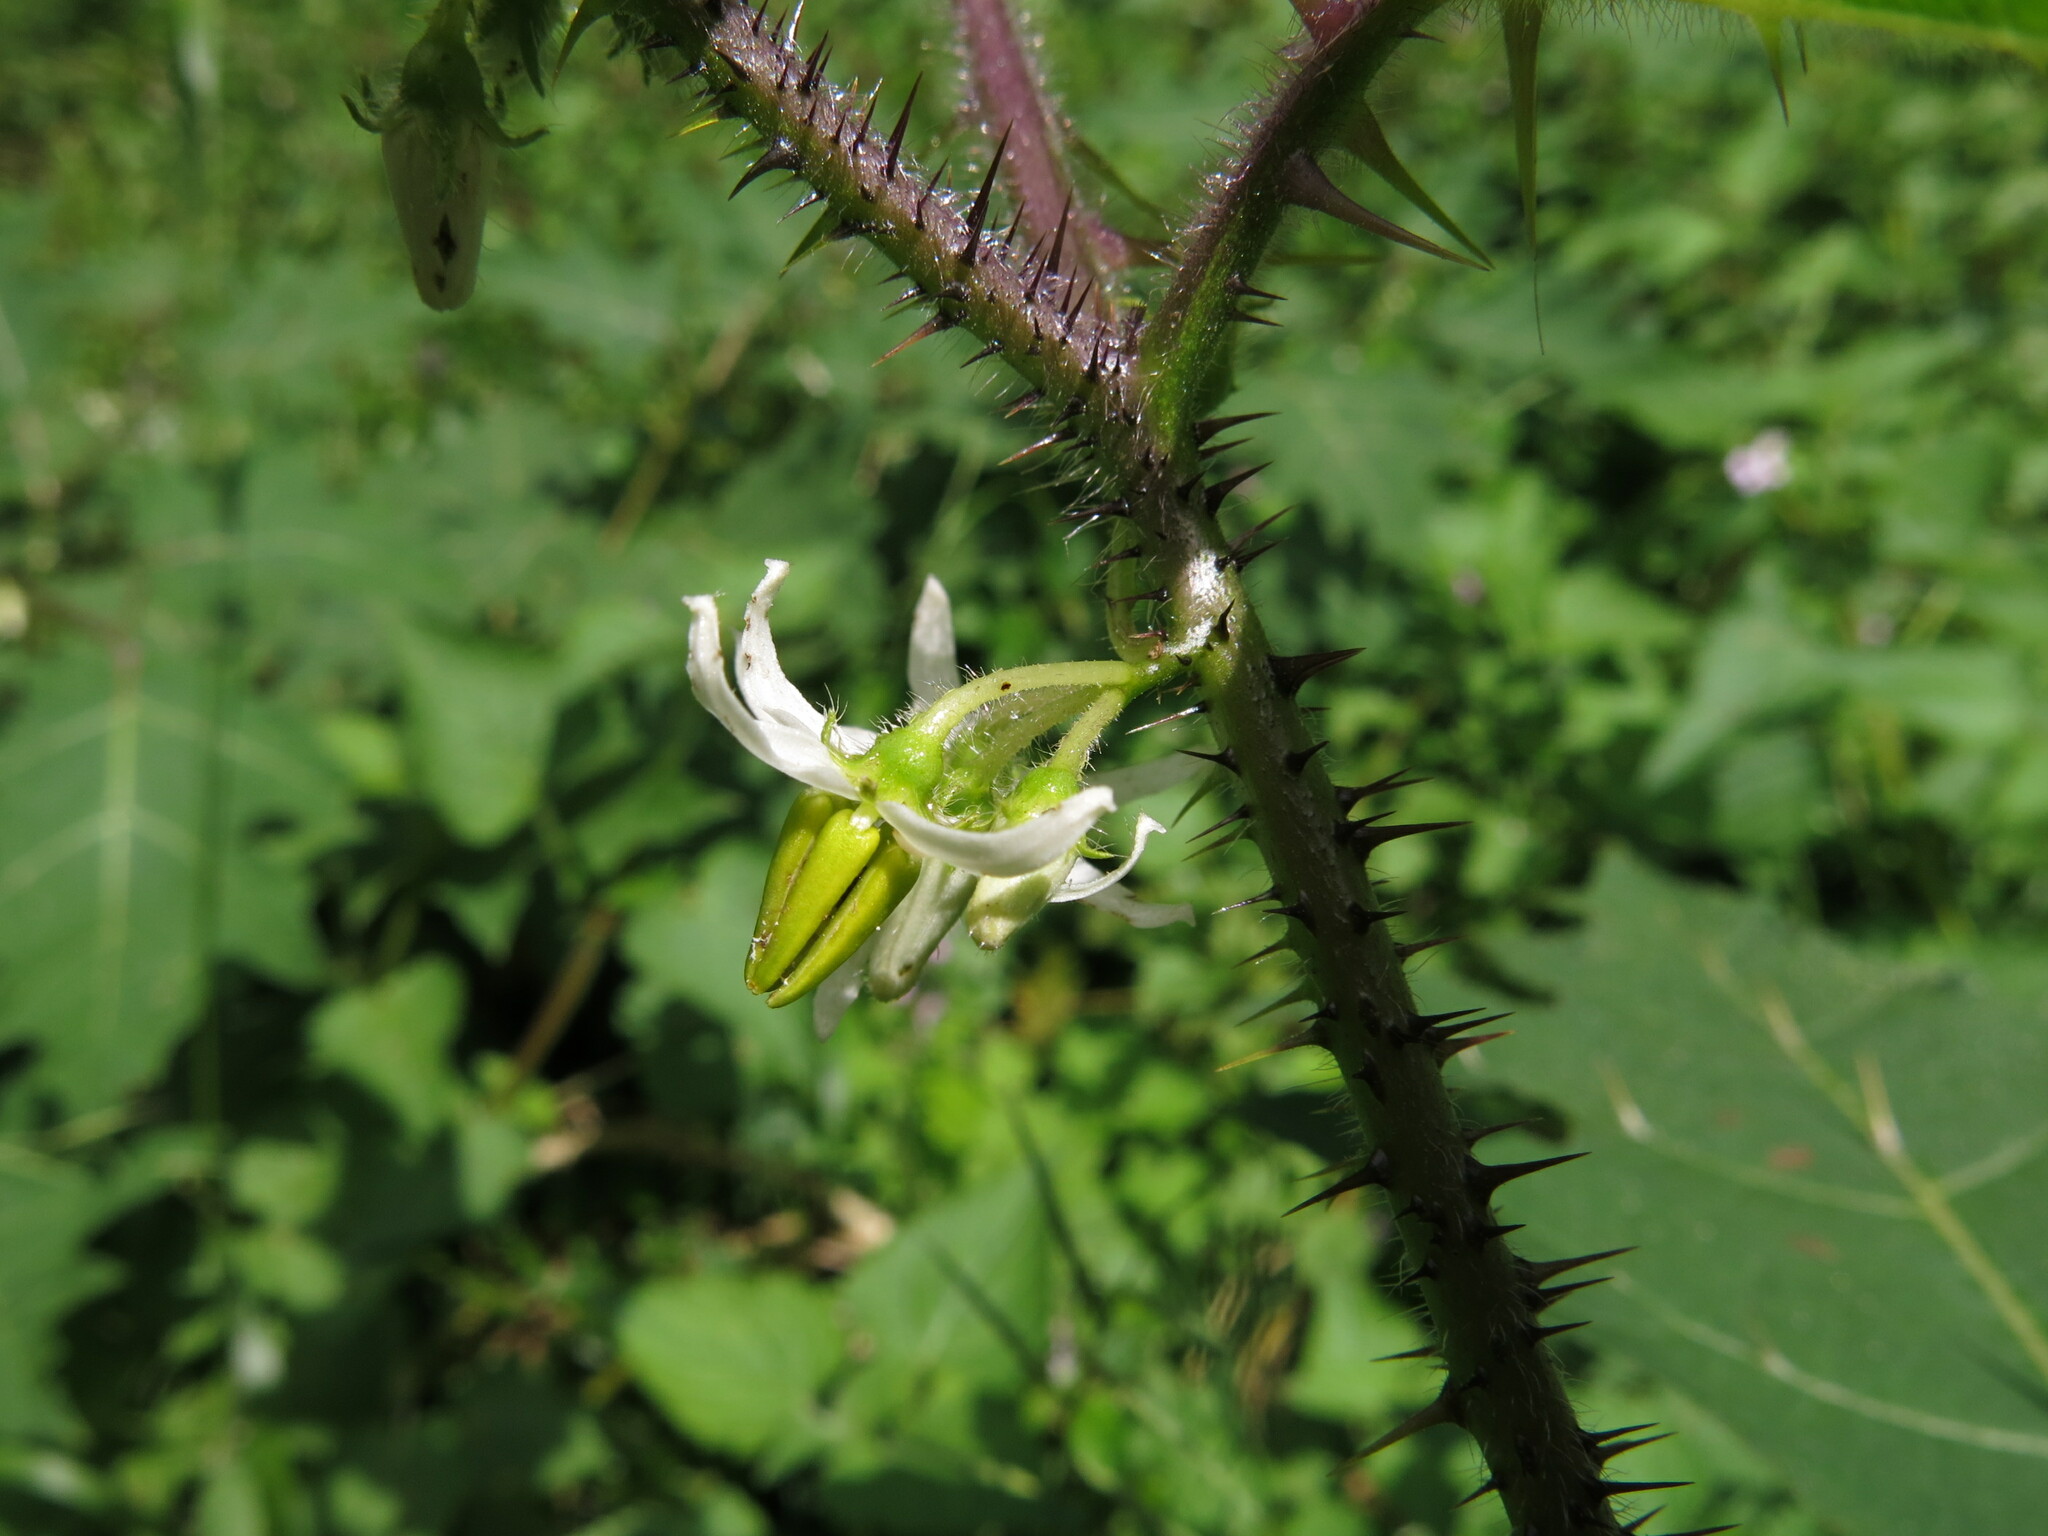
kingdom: Plantae
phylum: Tracheophyta
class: Magnoliopsida
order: Solanales
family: Solanaceae
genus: Solanum
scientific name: Solanum aculeatissimum
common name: Dutch eggplant
